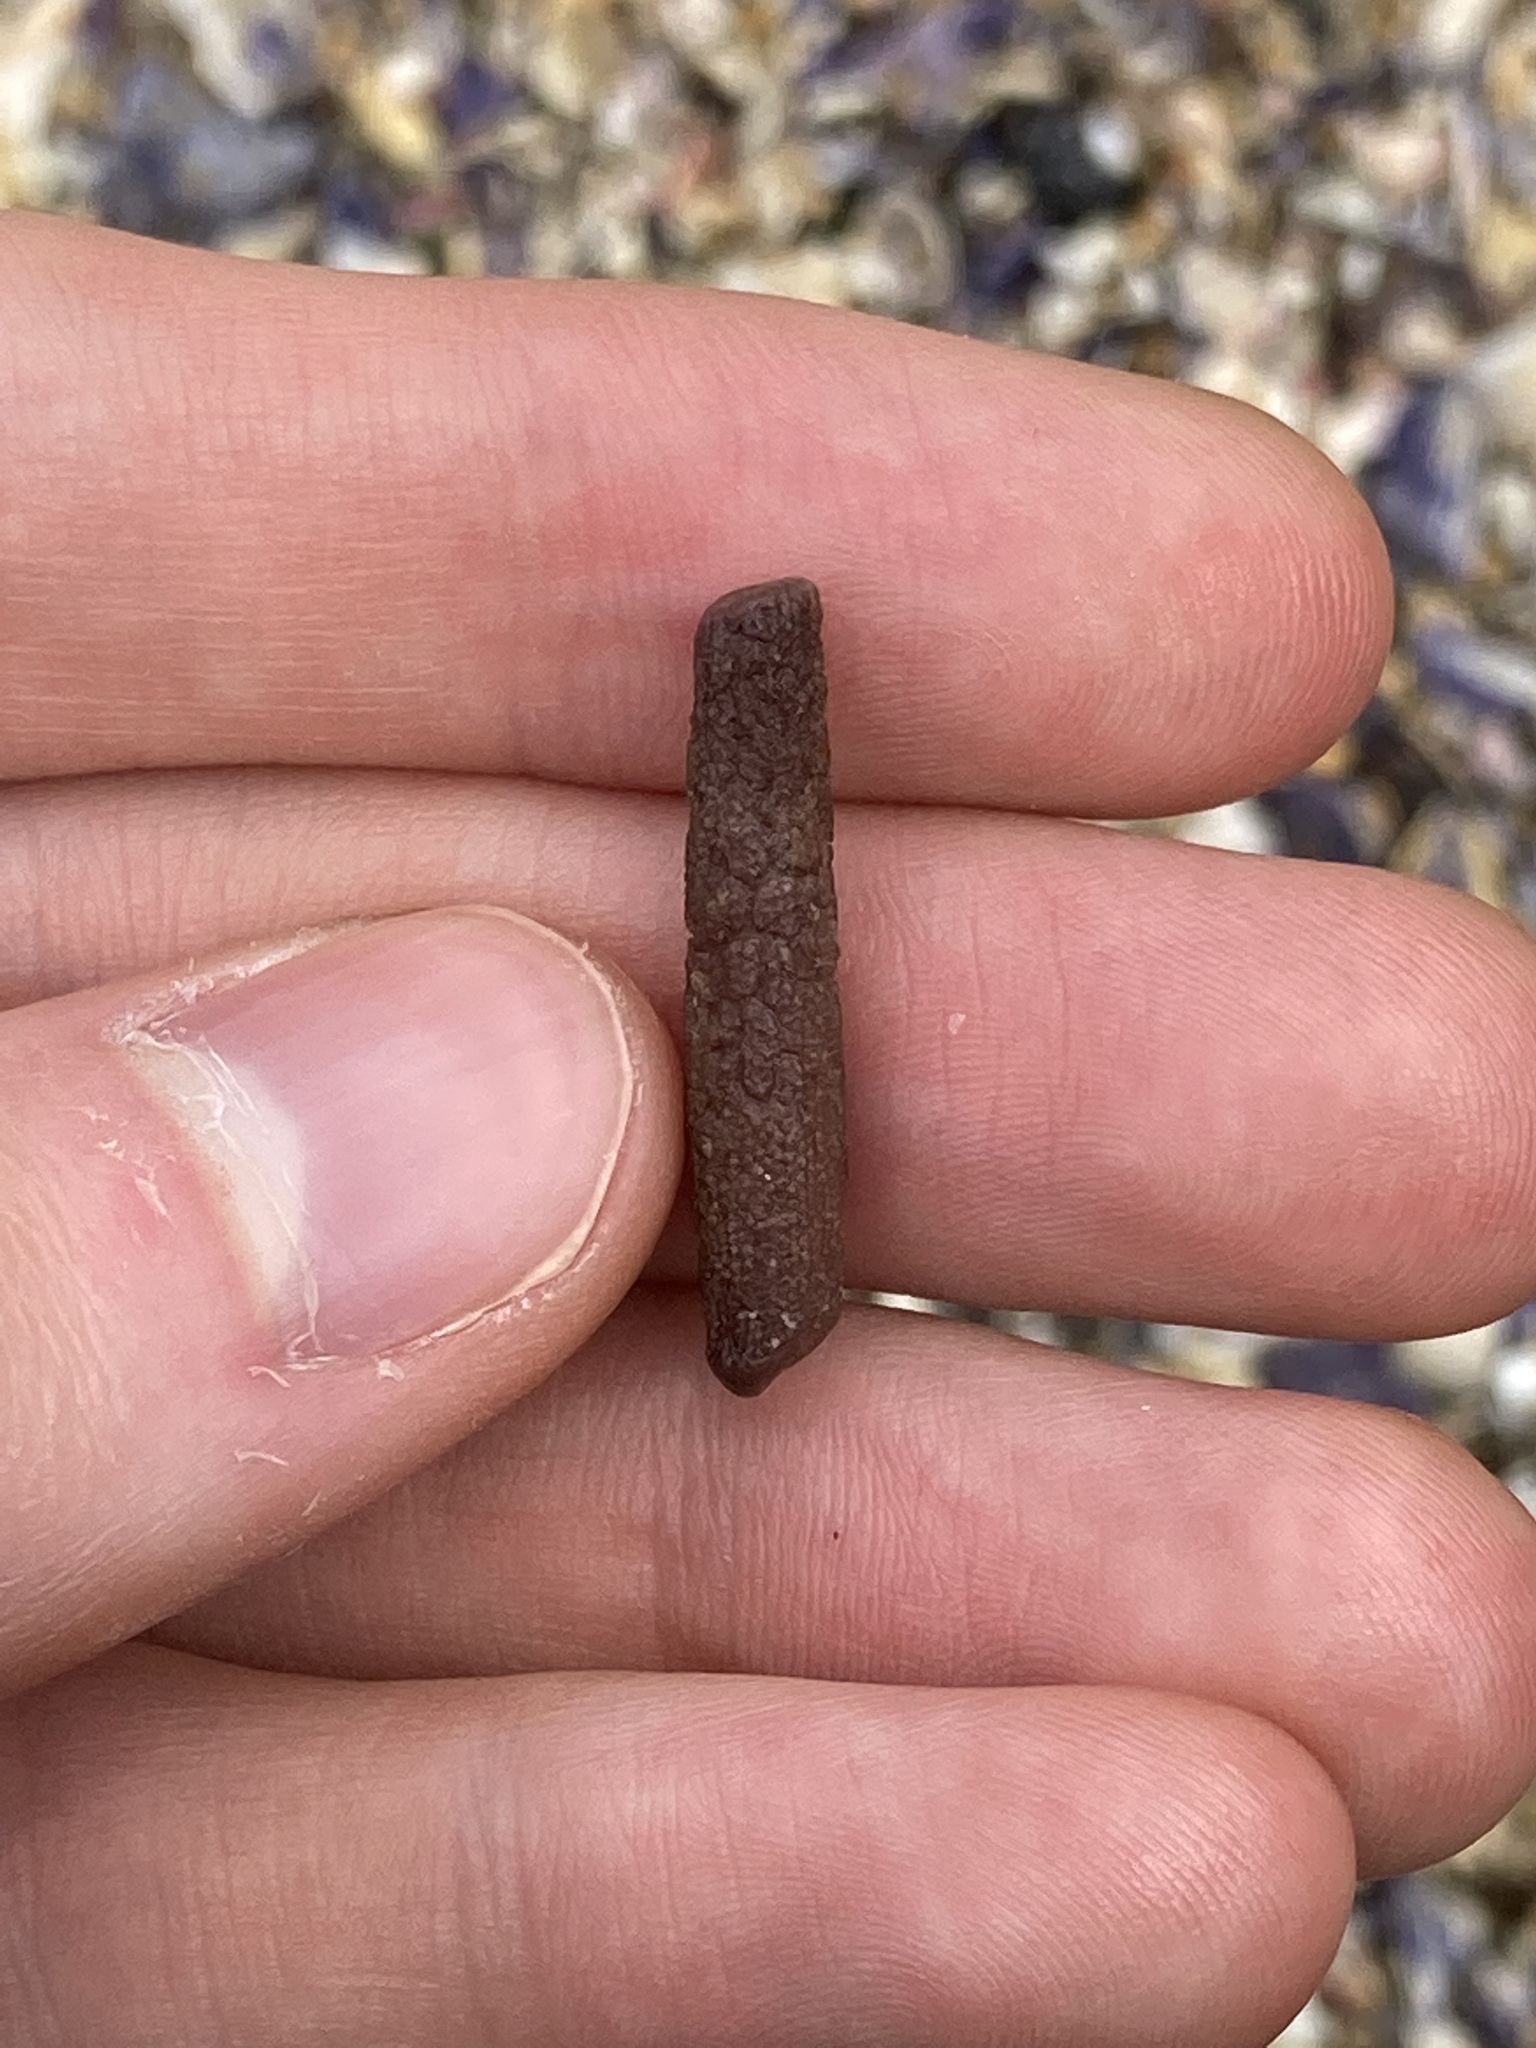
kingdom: Animalia
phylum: Echinodermata
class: Echinoidea
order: Cidaroida
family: Cidaridae
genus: Phyllacanthus
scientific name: Phyllacanthus parvispinus
